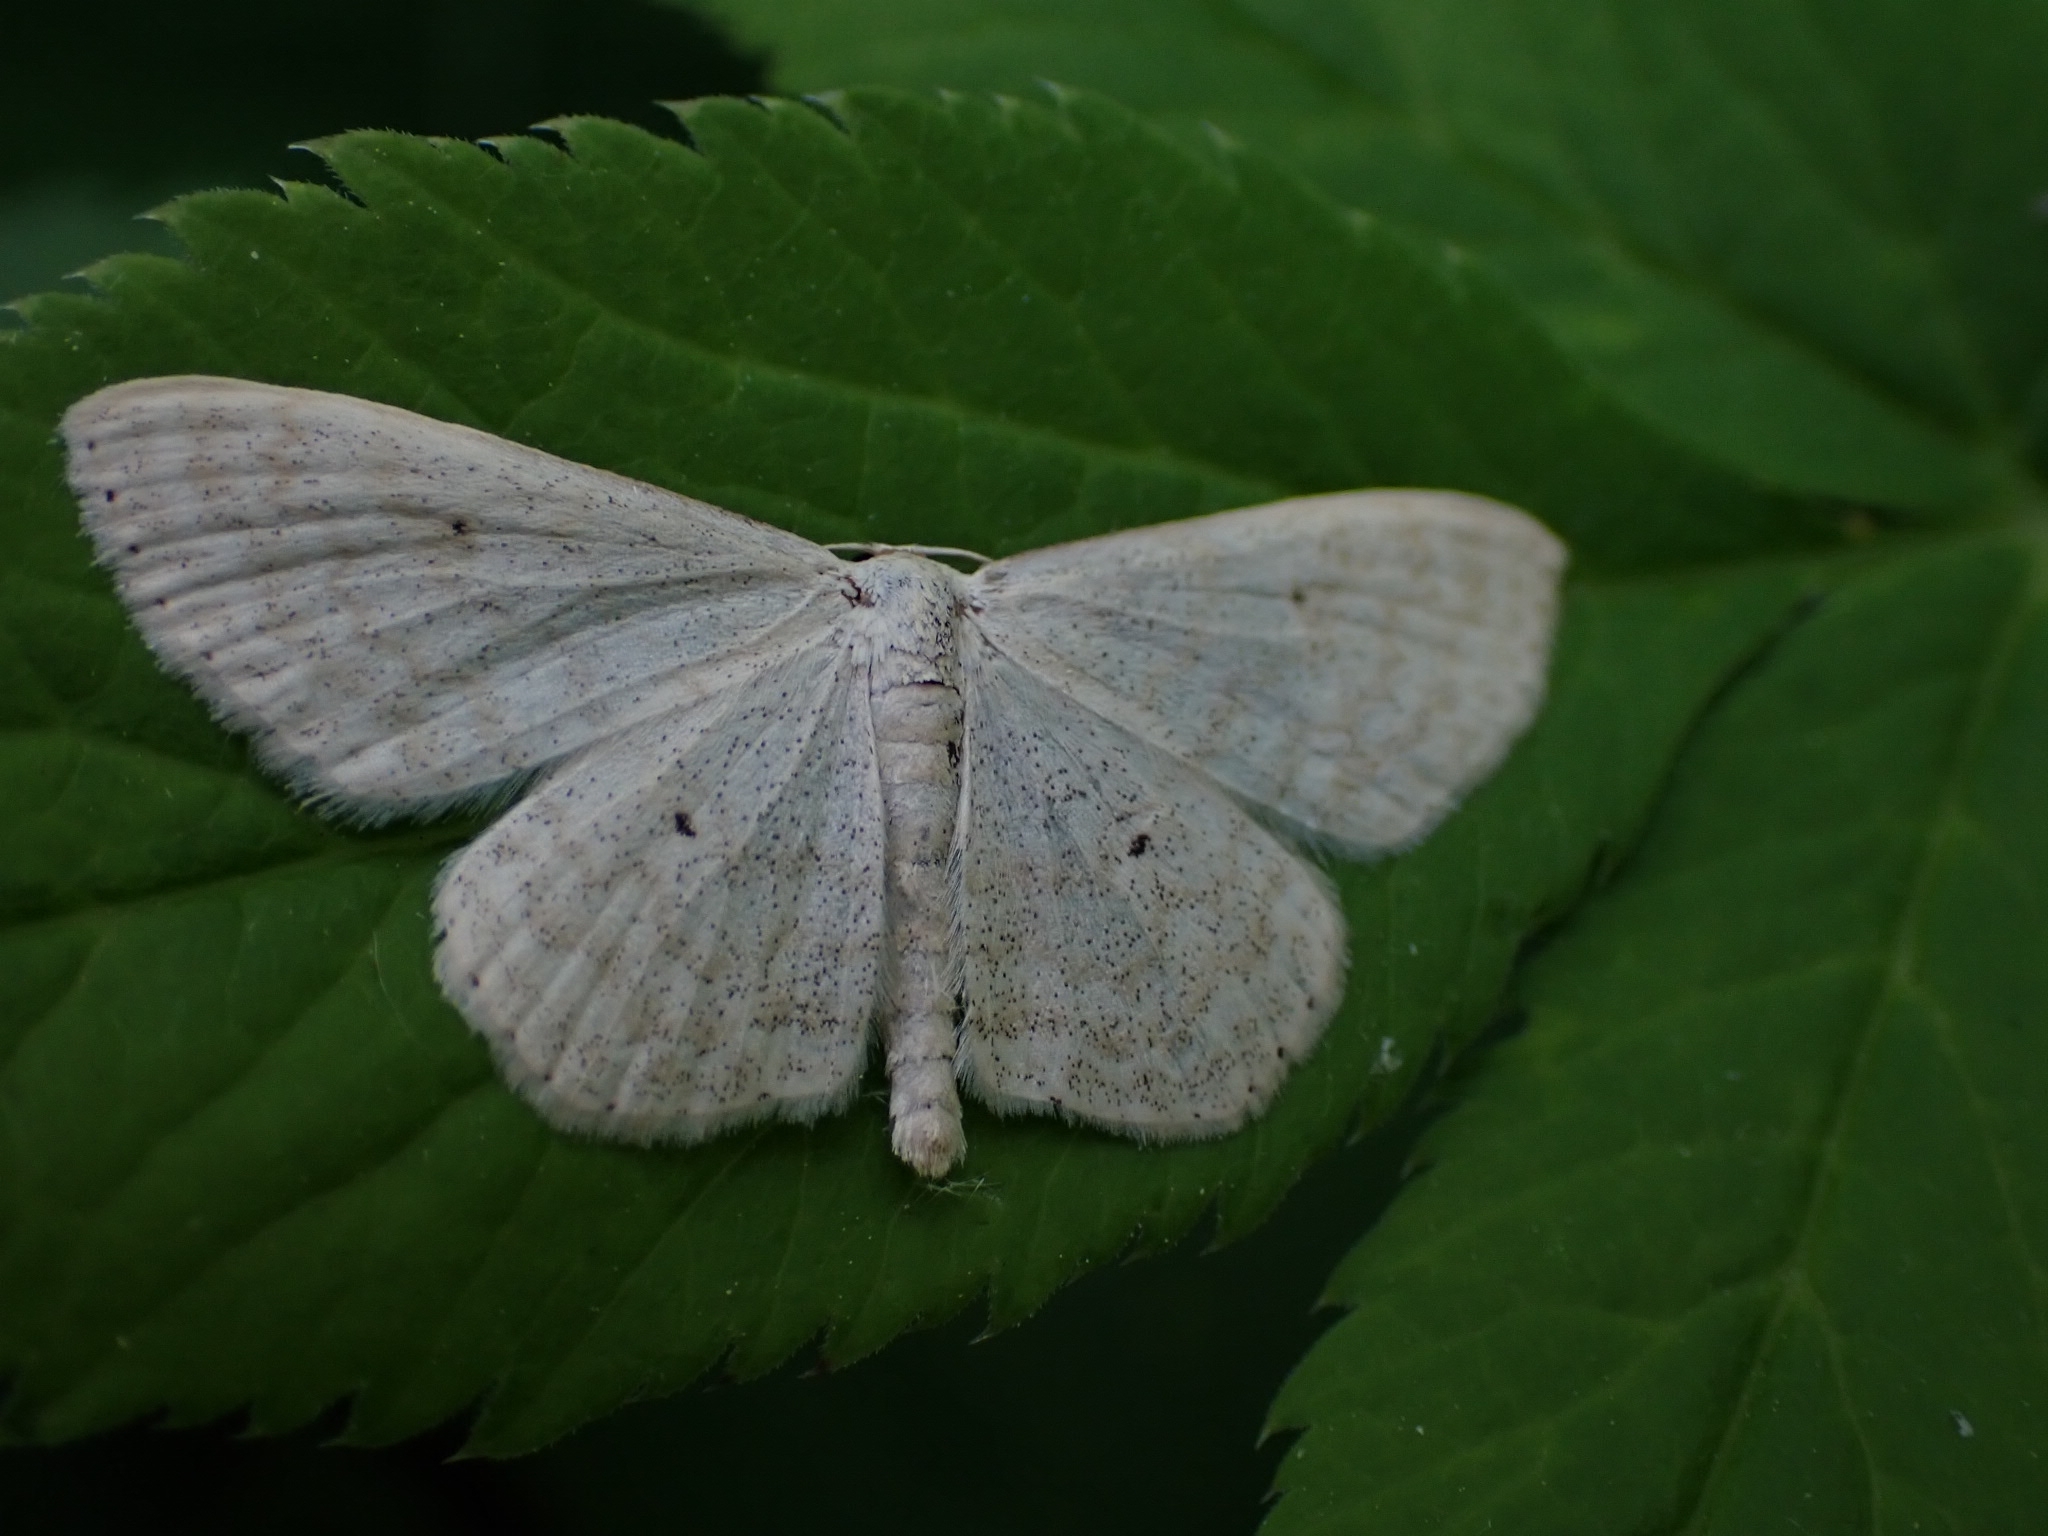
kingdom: Animalia
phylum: Arthropoda
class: Insecta
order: Lepidoptera
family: Geometridae
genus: Scopula
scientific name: Scopula immutata
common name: Lesser cream wave
